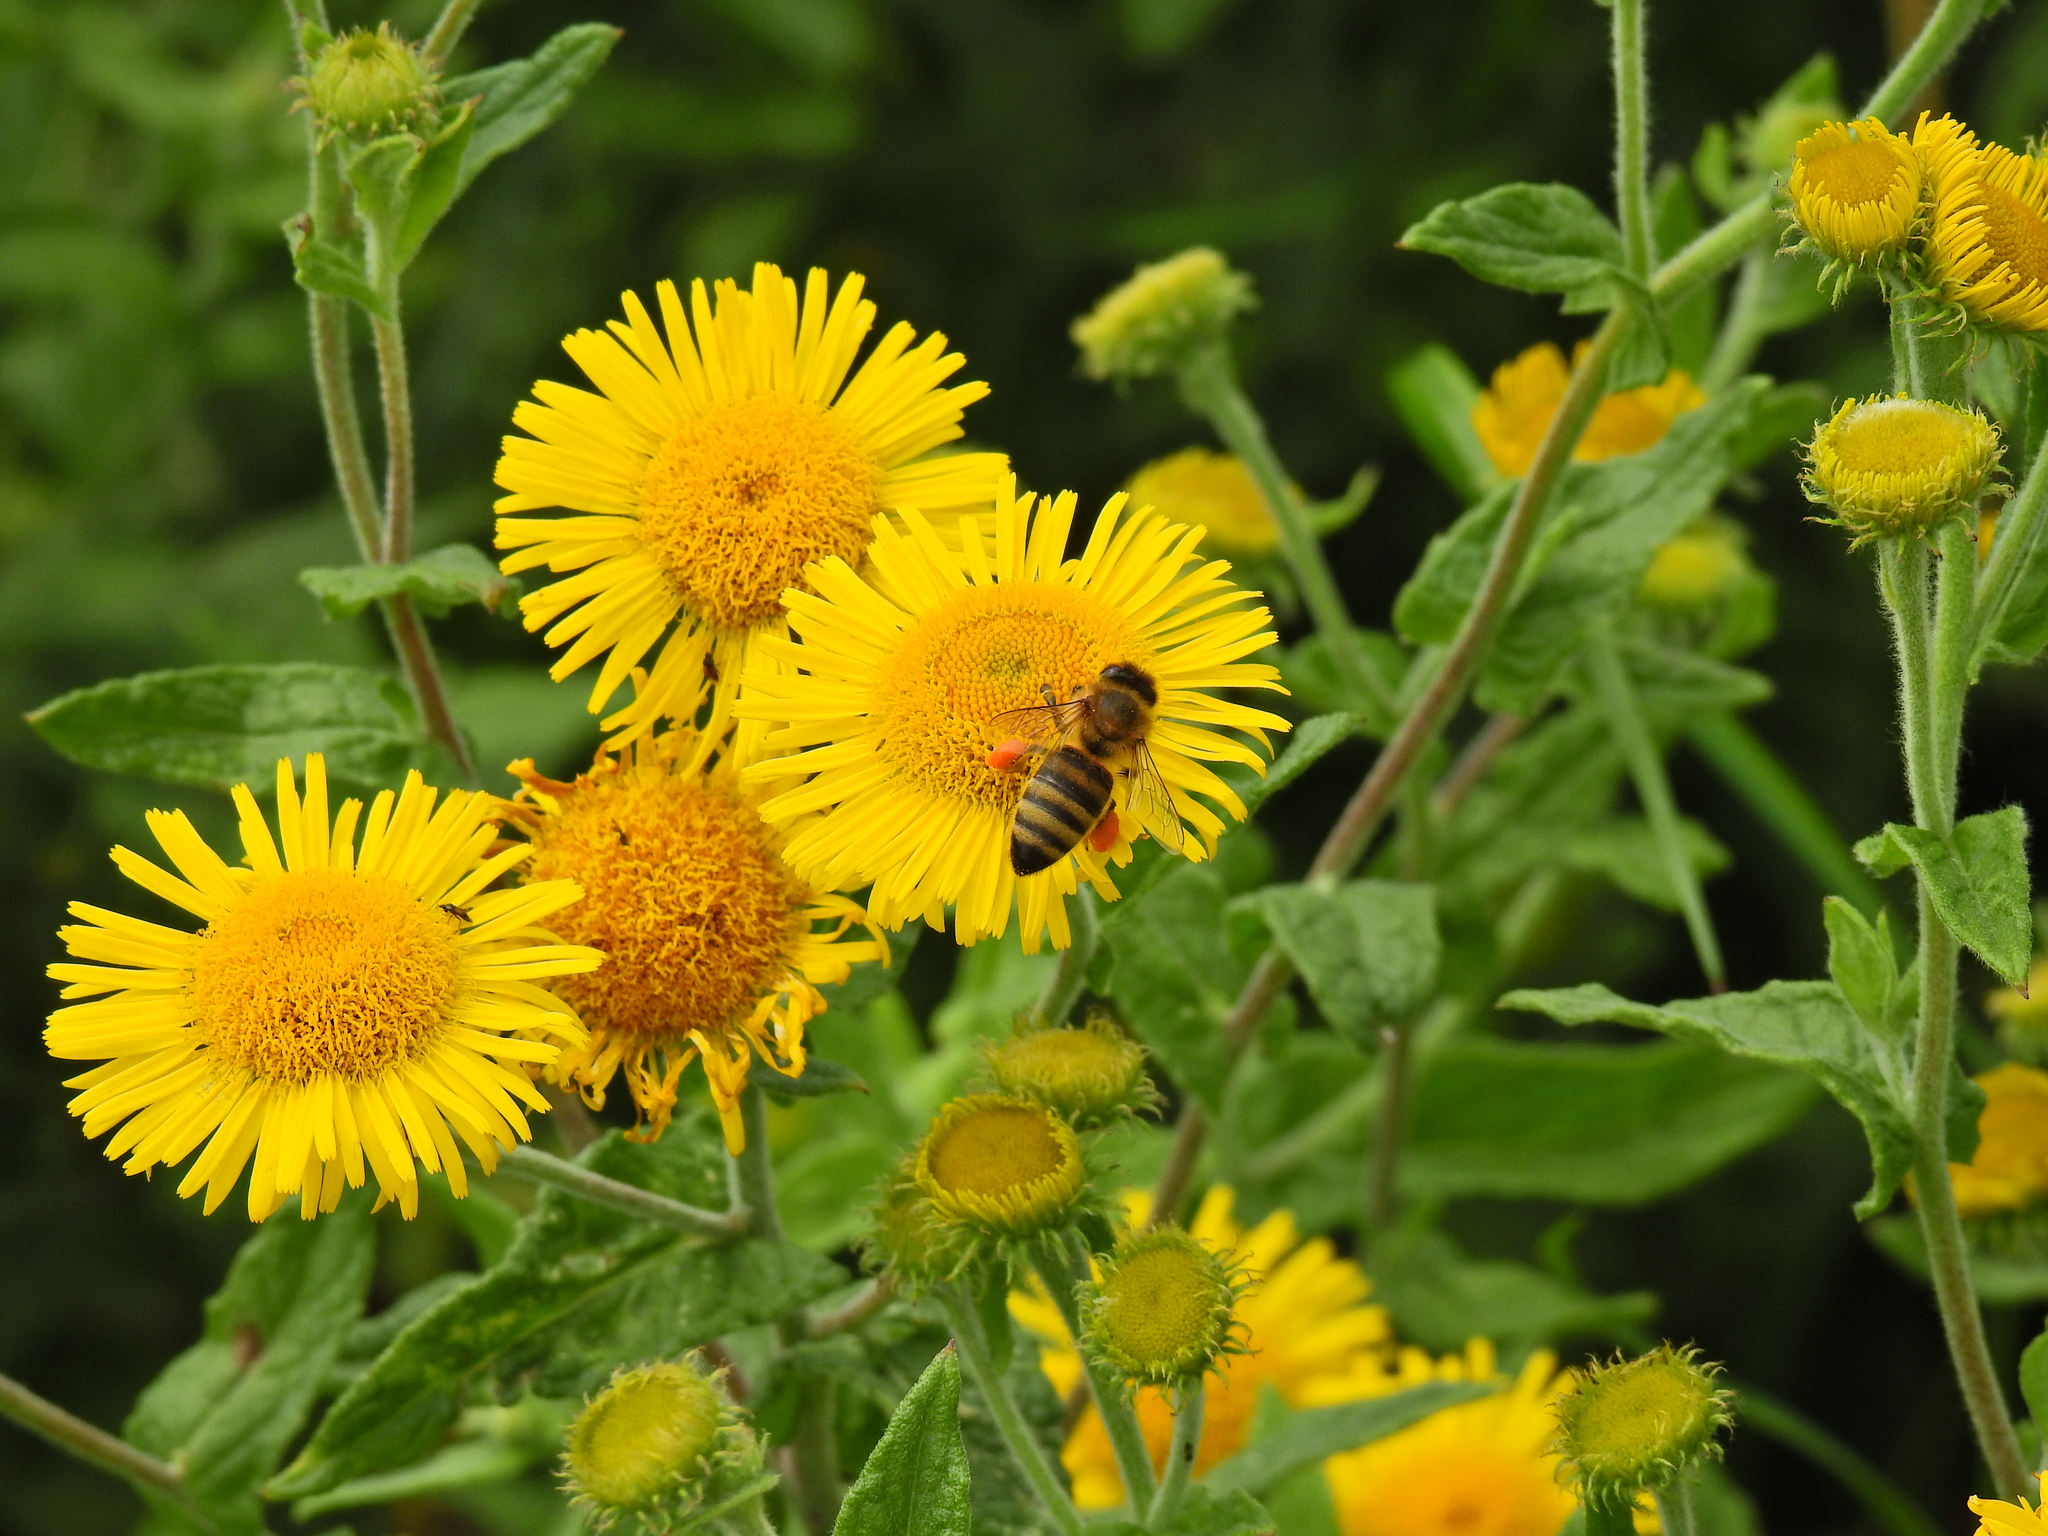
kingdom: Animalia
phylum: Arthropoda
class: Insecta
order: Hymenoptera
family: Apidae
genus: Apis
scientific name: Apis mellifera
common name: Honey bee
